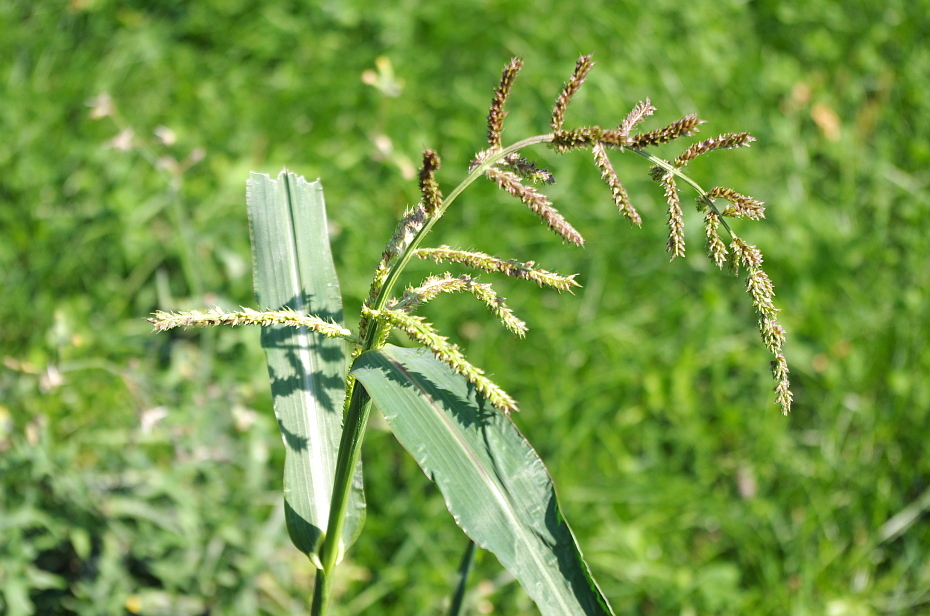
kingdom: Plantae
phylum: Tracheophyta
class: Liliopsida
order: Poales
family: Poaceae
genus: Echinochloa
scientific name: Echinochloa crus-galli
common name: Cockspur
